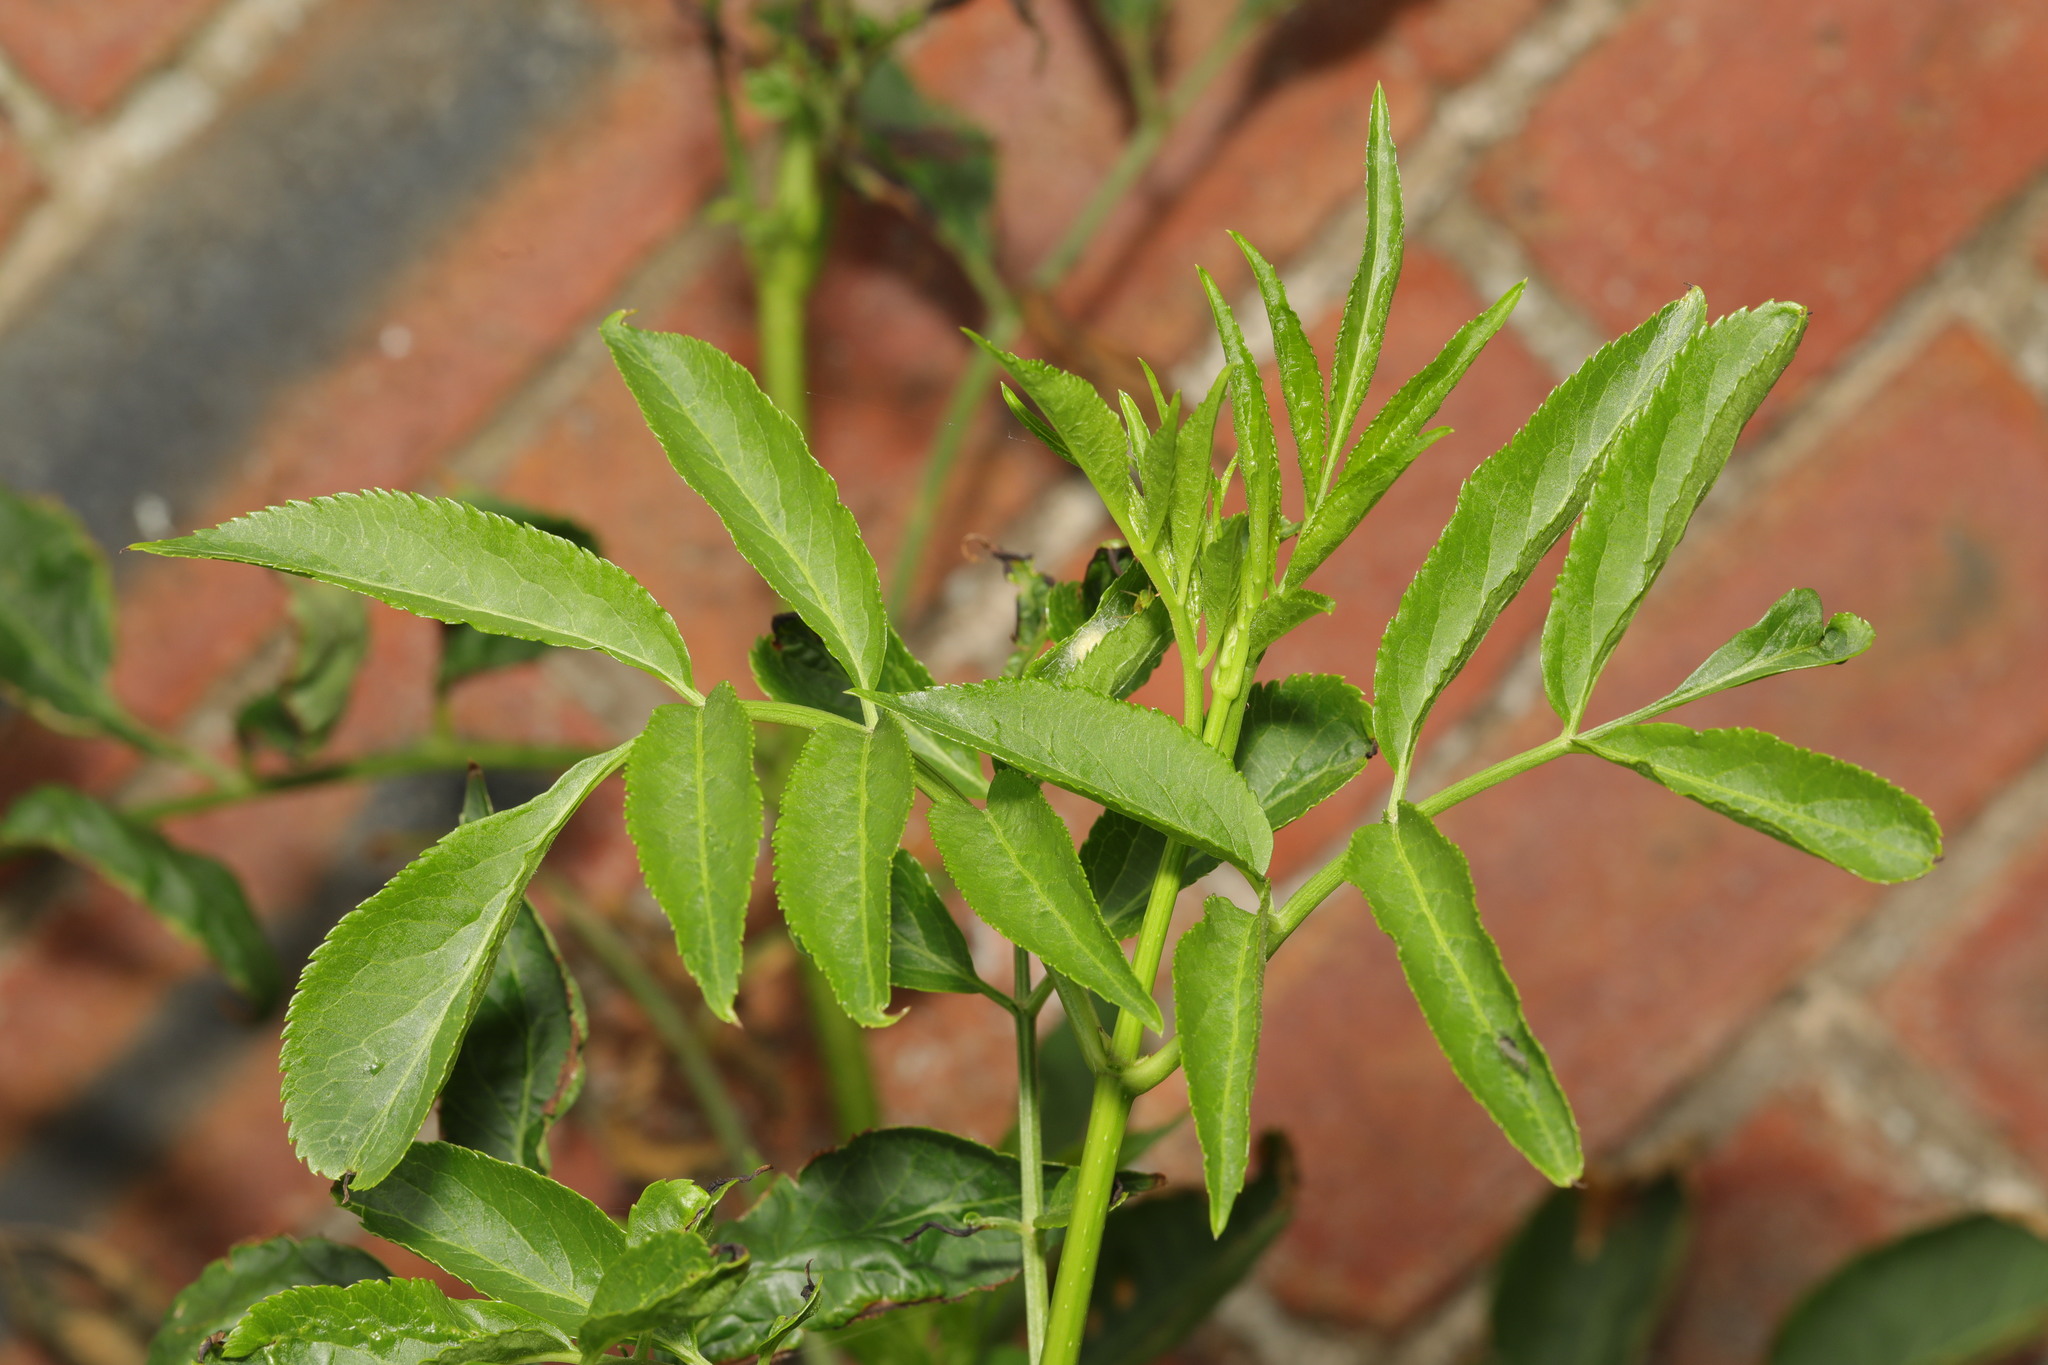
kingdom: Plantae
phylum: Tracheophyta
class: Magnoliopsida
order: Dipsacales
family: Viburnaceae
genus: Sambucus
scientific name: Sambucus nigra
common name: Elder
